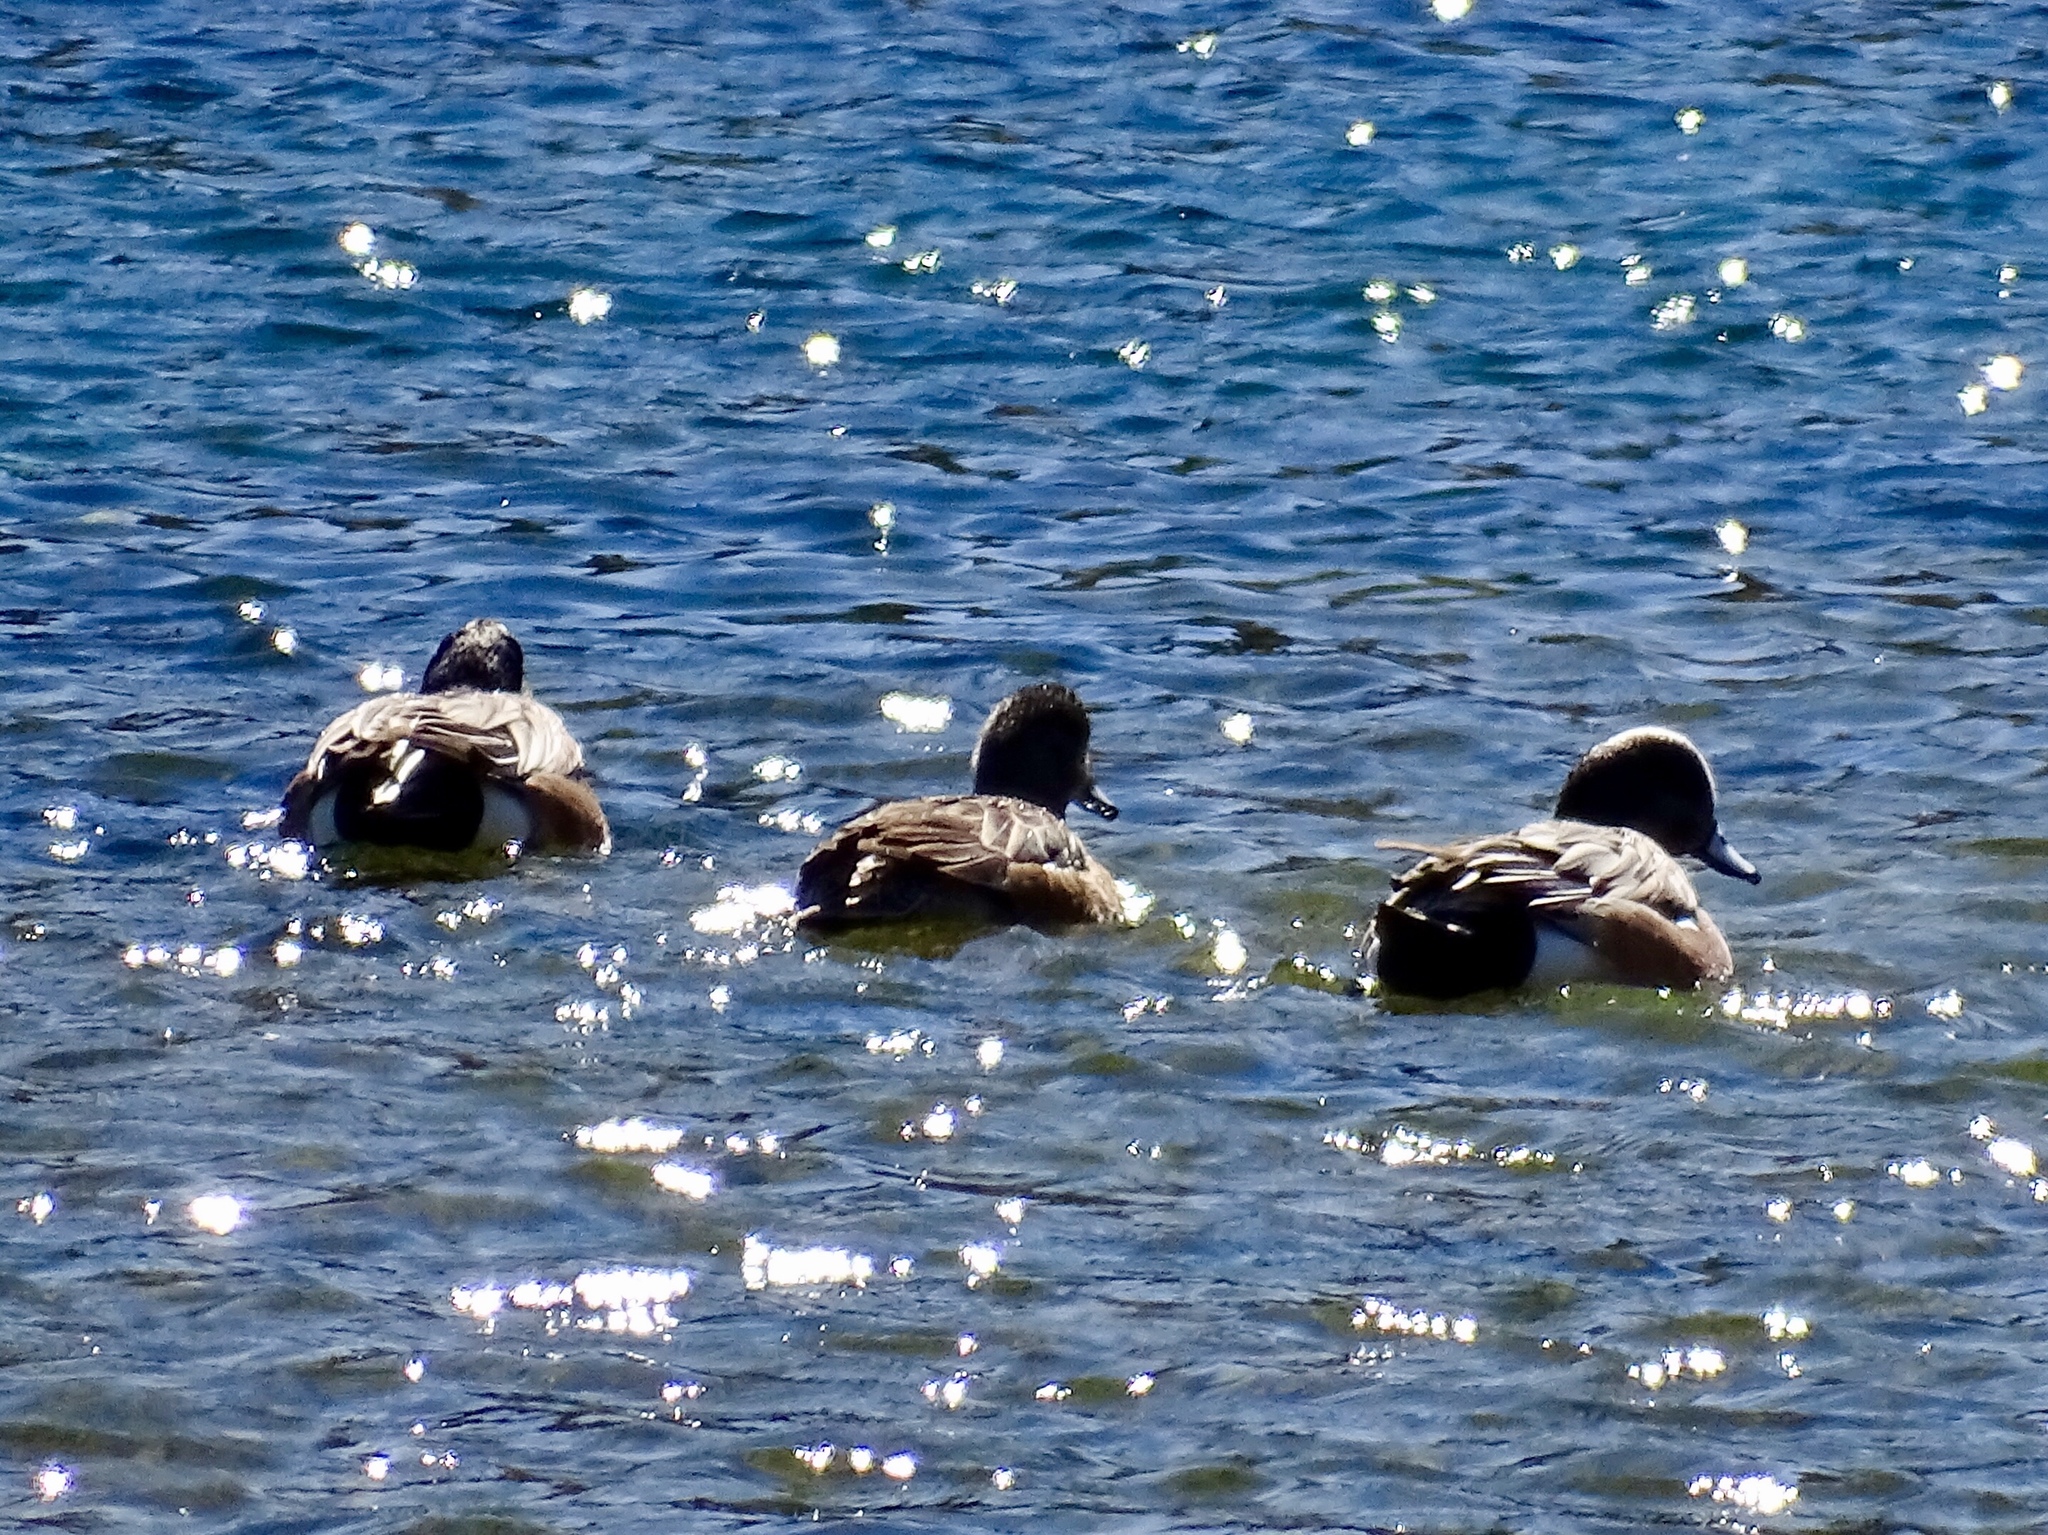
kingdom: Animalia
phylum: Chordata
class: Aves
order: Anseriformes
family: Anatidae
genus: Mareca
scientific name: Mareca americana
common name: American wigeon
